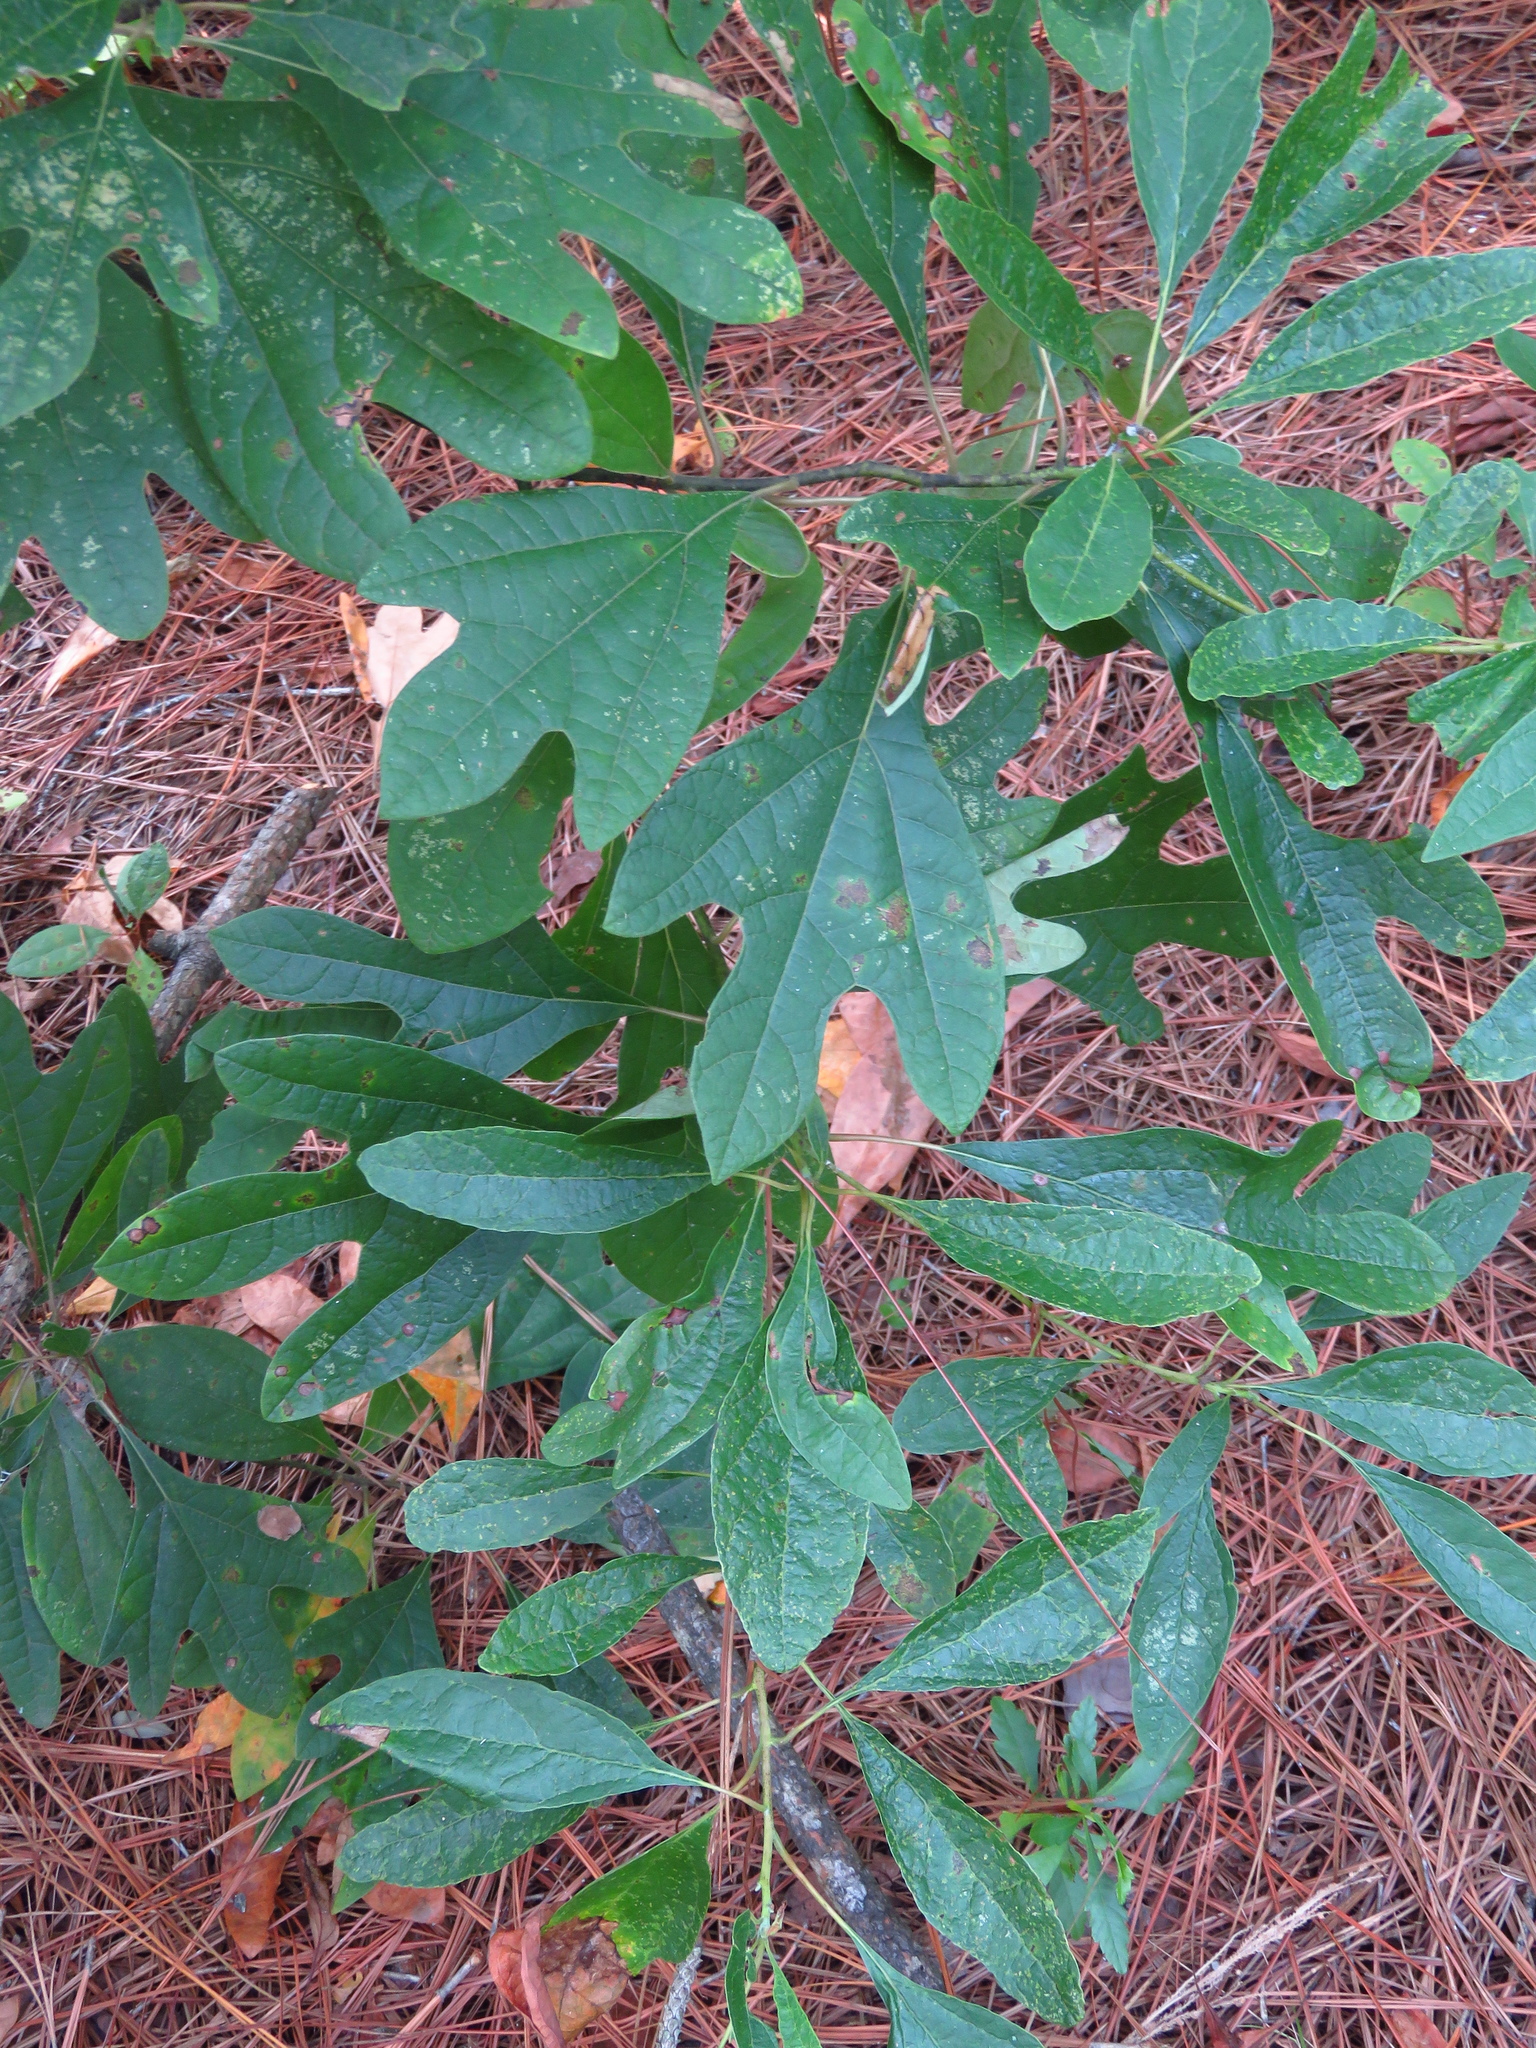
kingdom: Plantae
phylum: Tracheophyta
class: Magnoliopsida
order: Laurales
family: Lauraceae
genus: Sassafras
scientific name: Sassafras albidum
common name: Sassafras
